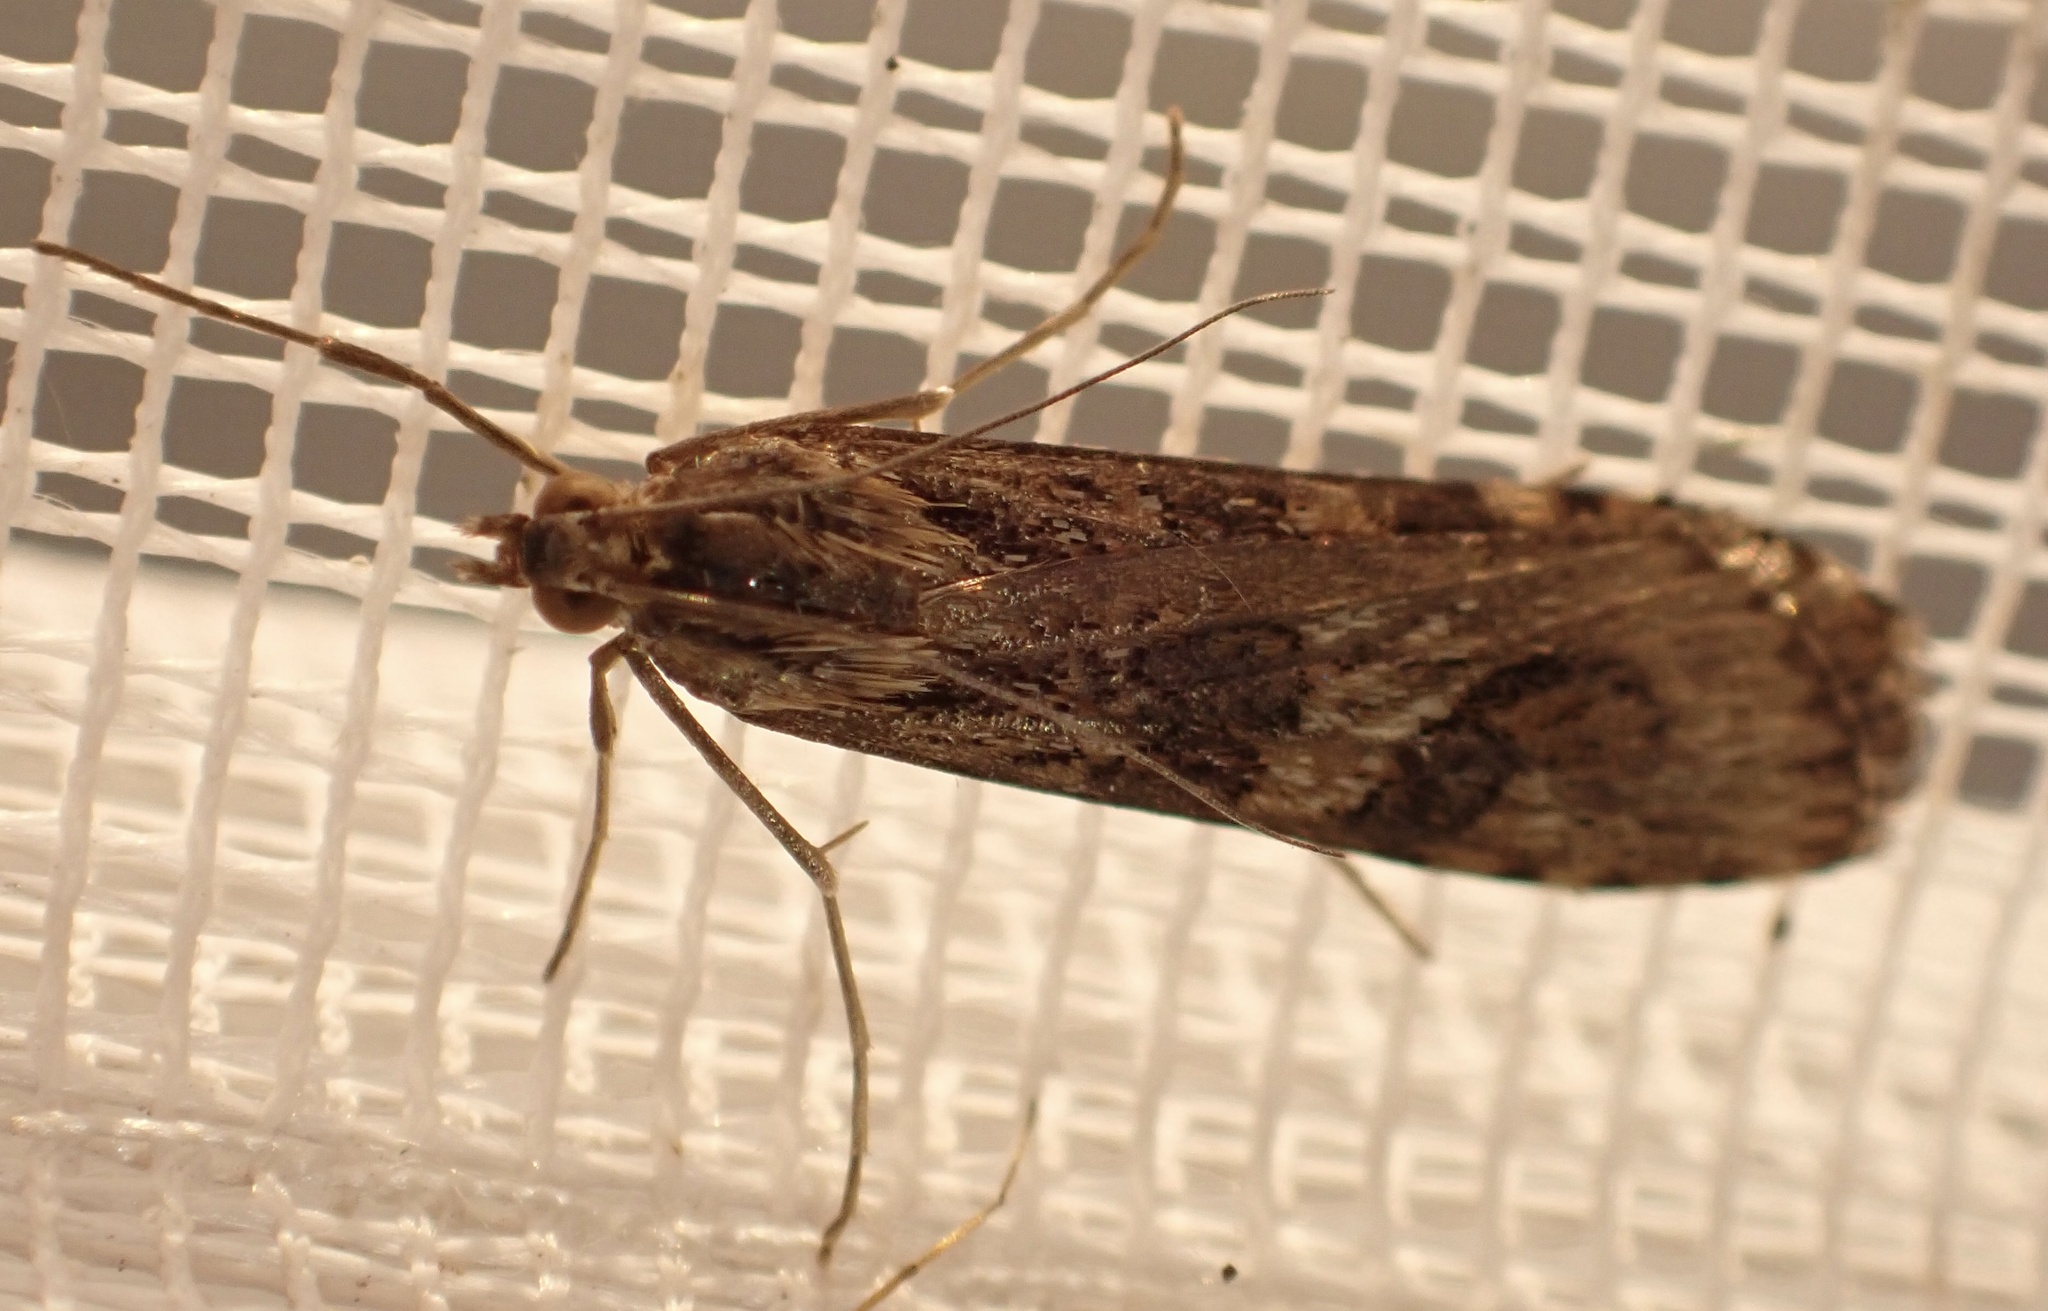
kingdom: Animalia
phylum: Arthropoda
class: Insecta
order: Lepidoptera
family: Crambidae
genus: Nomophila
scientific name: Nomophila noctuella
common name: Rush veneer
